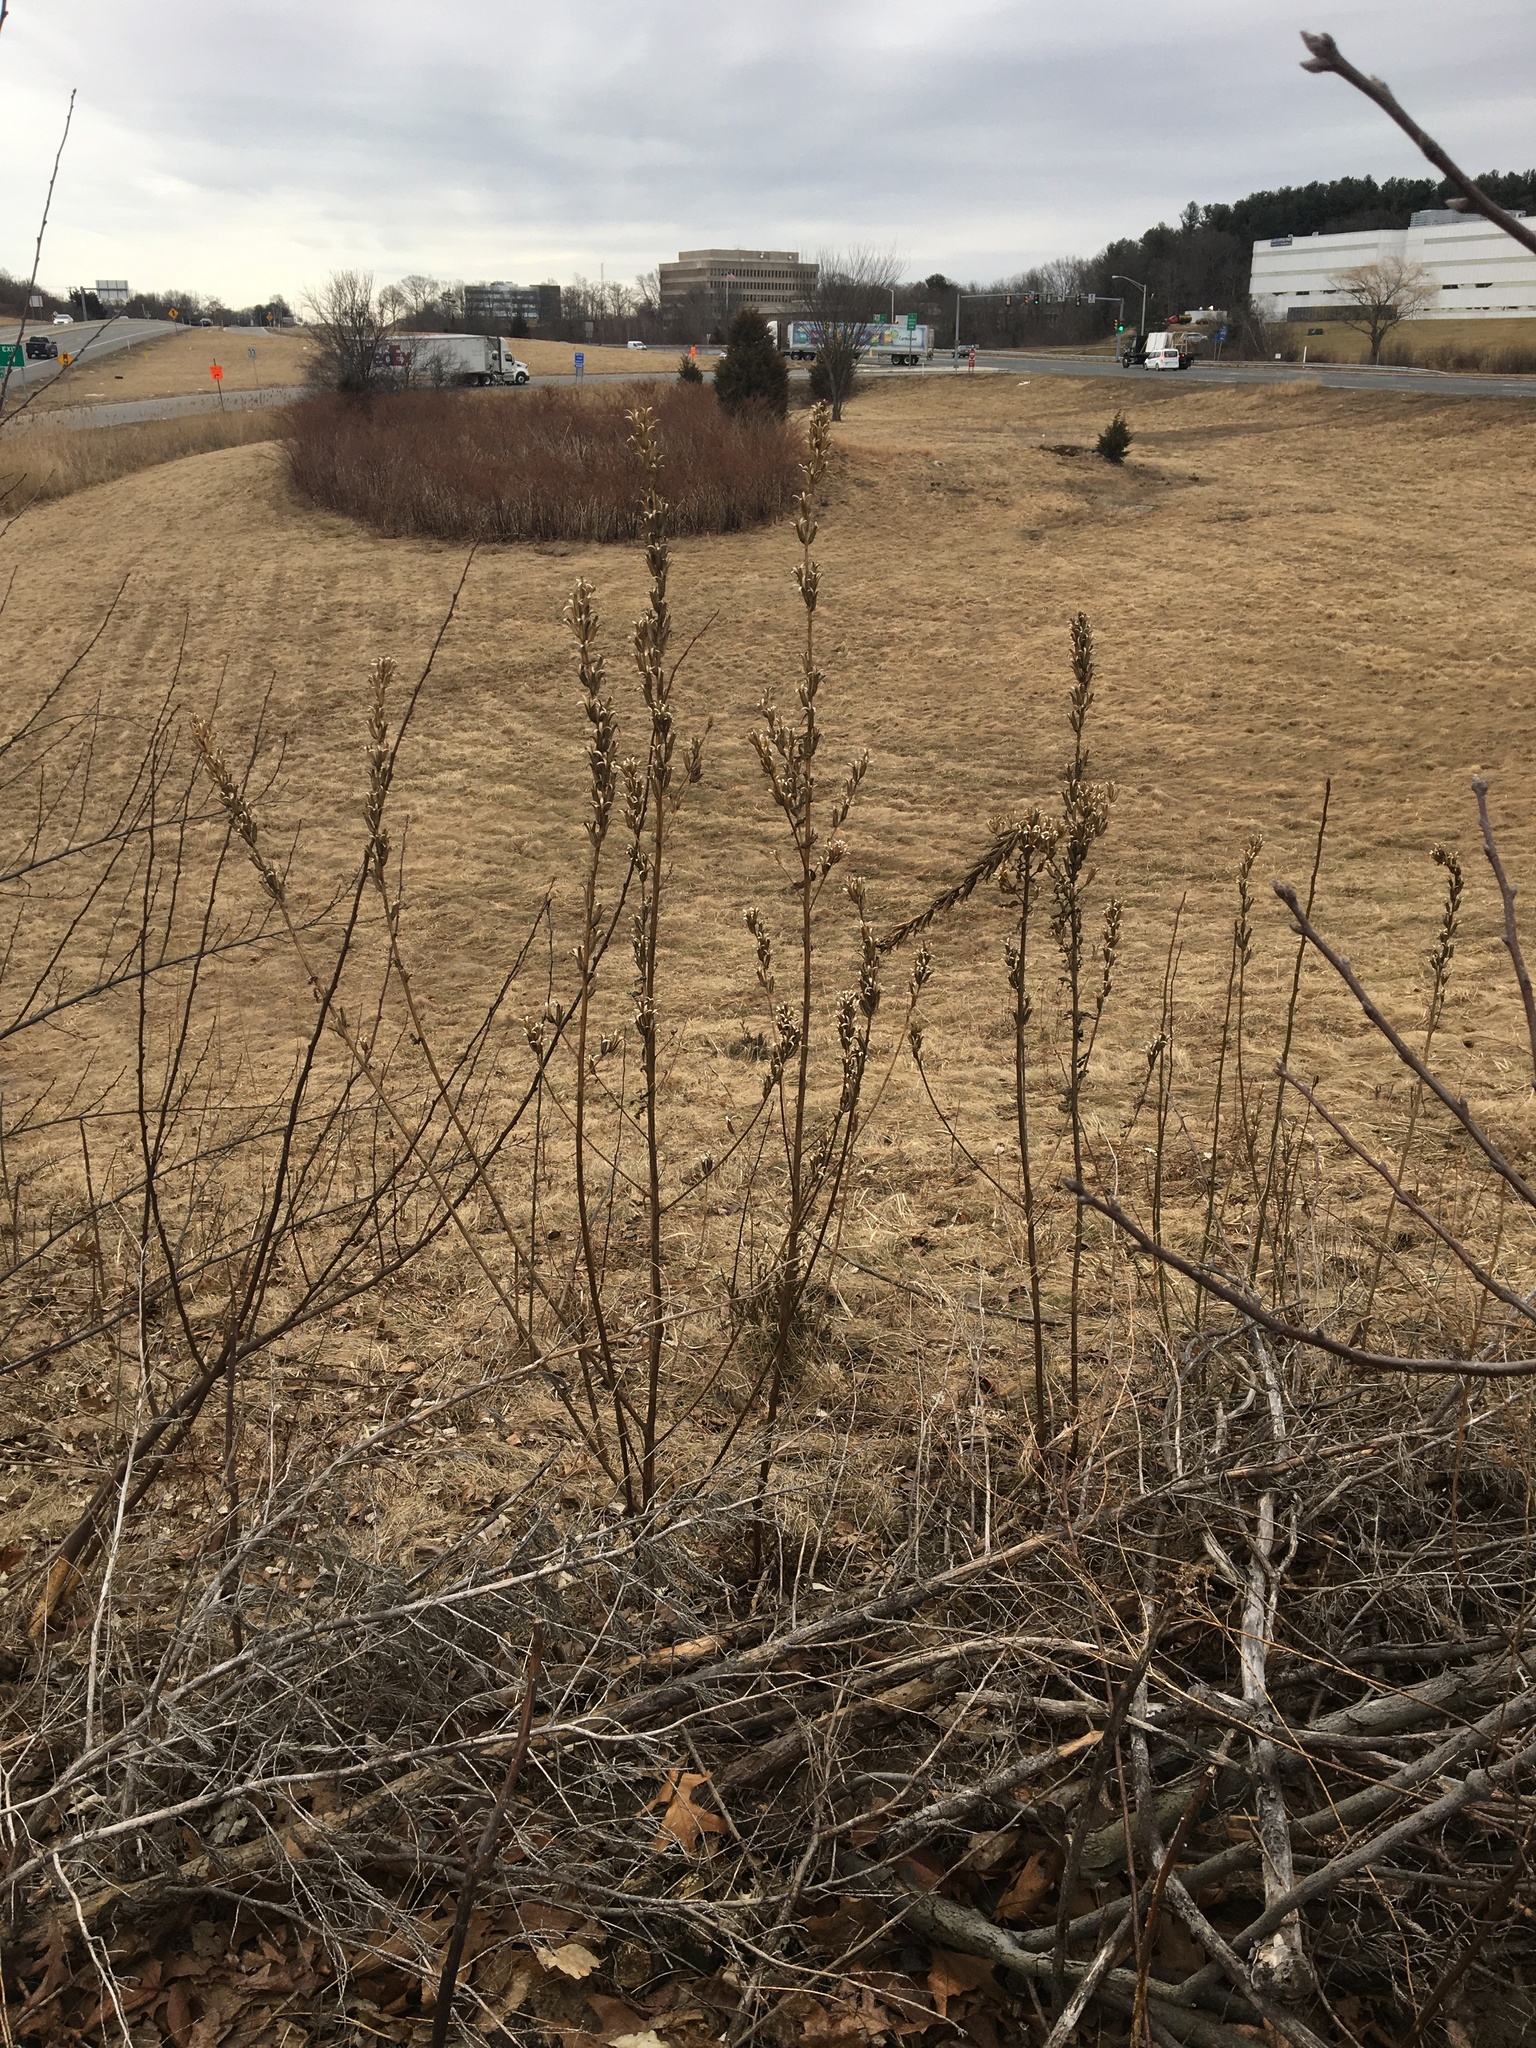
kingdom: Plantae
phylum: Tracheophyta
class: Magnoliopsida
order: Myrtales
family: Onagraceae
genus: Oenothera
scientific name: Oenothera biennis
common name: Common evening-primrose
